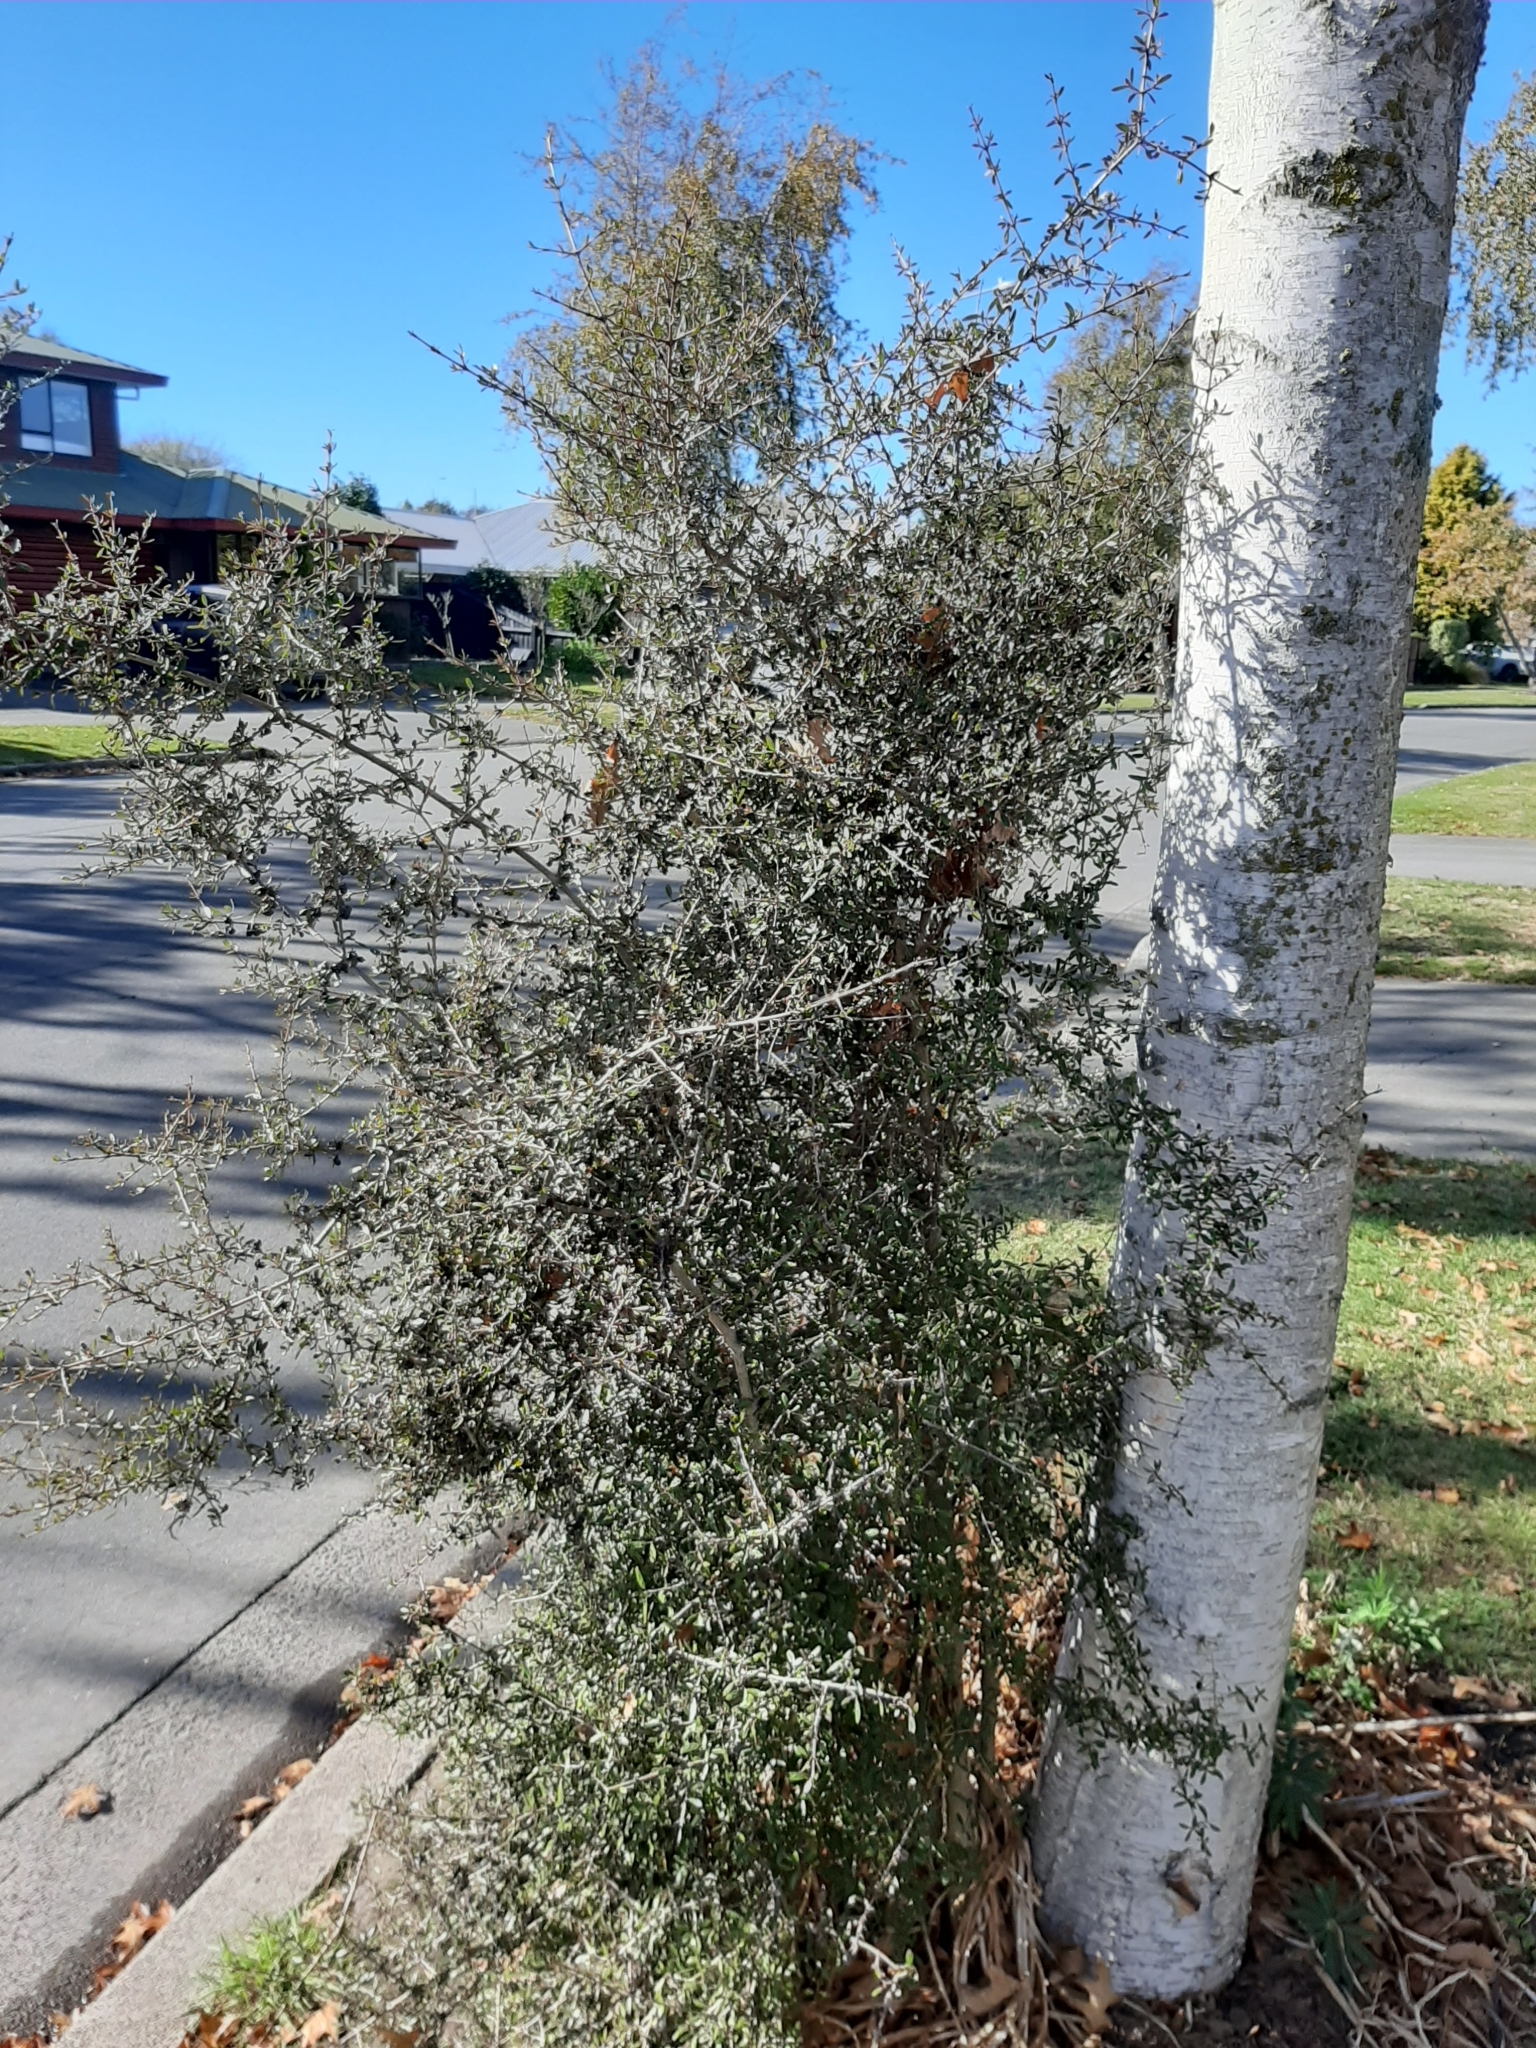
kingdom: Plantae
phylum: Tracheophyta
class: Magnoliopsida
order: Gentianales
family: Rubiaceae
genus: Coprosma
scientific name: Coprosma propinqua
